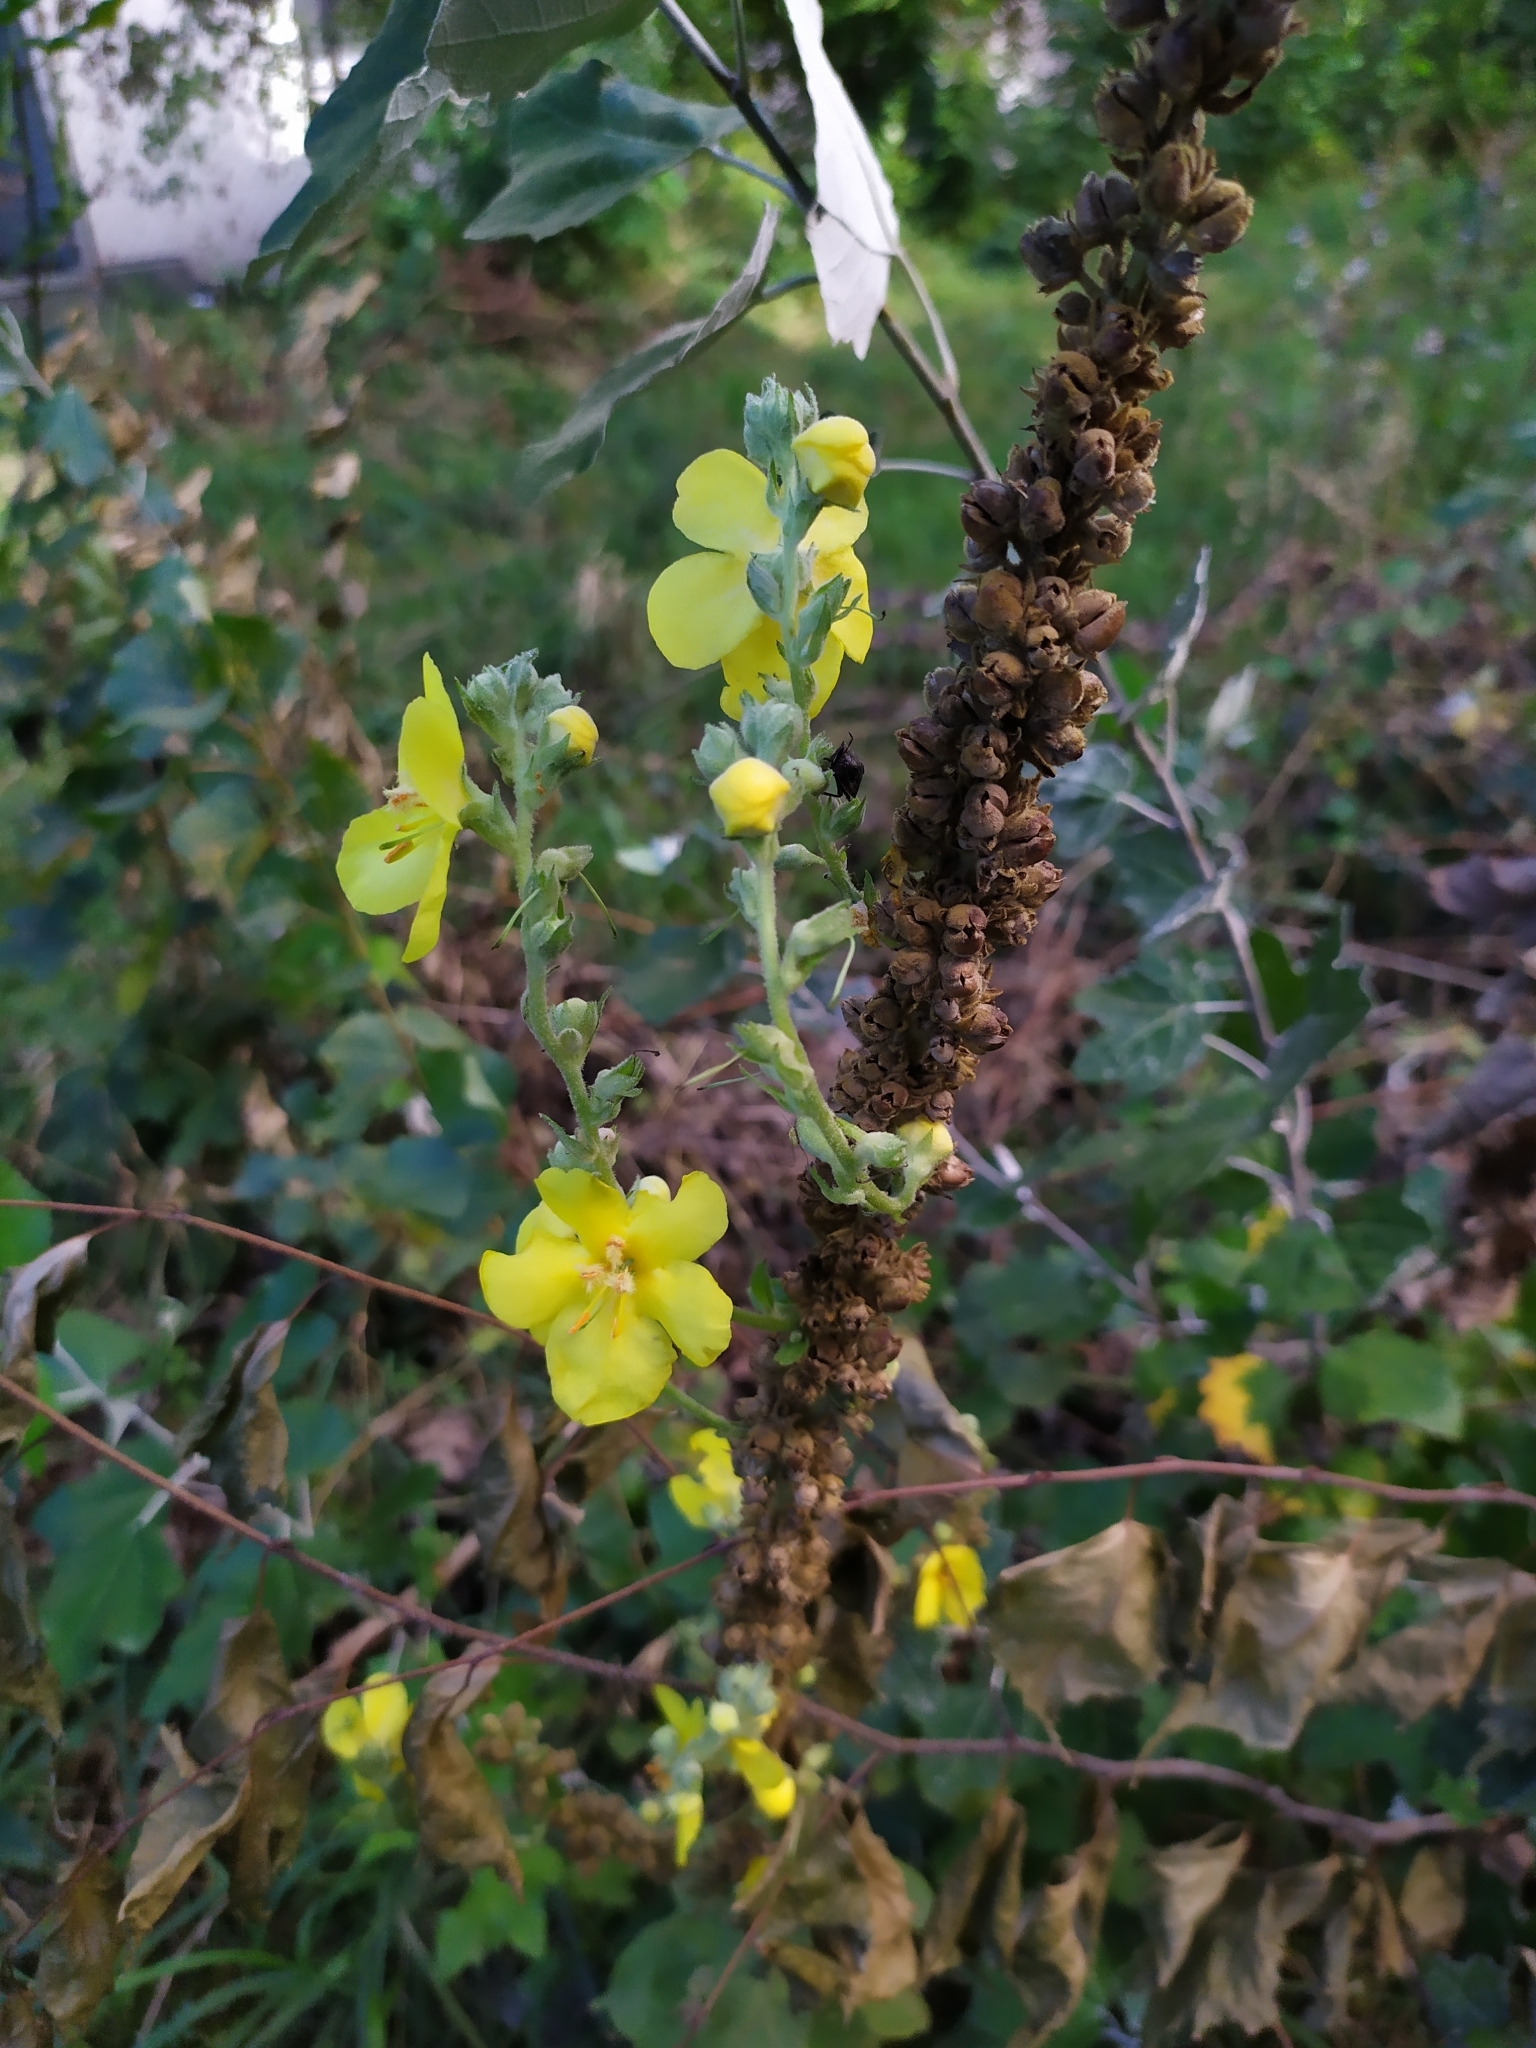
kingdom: Plantae
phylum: Tracheophyta
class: Magnoliopsida
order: Lamiales
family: Scrophulariaceae
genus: Verbascum
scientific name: Verbascum phlomoides
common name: Orange mullein
